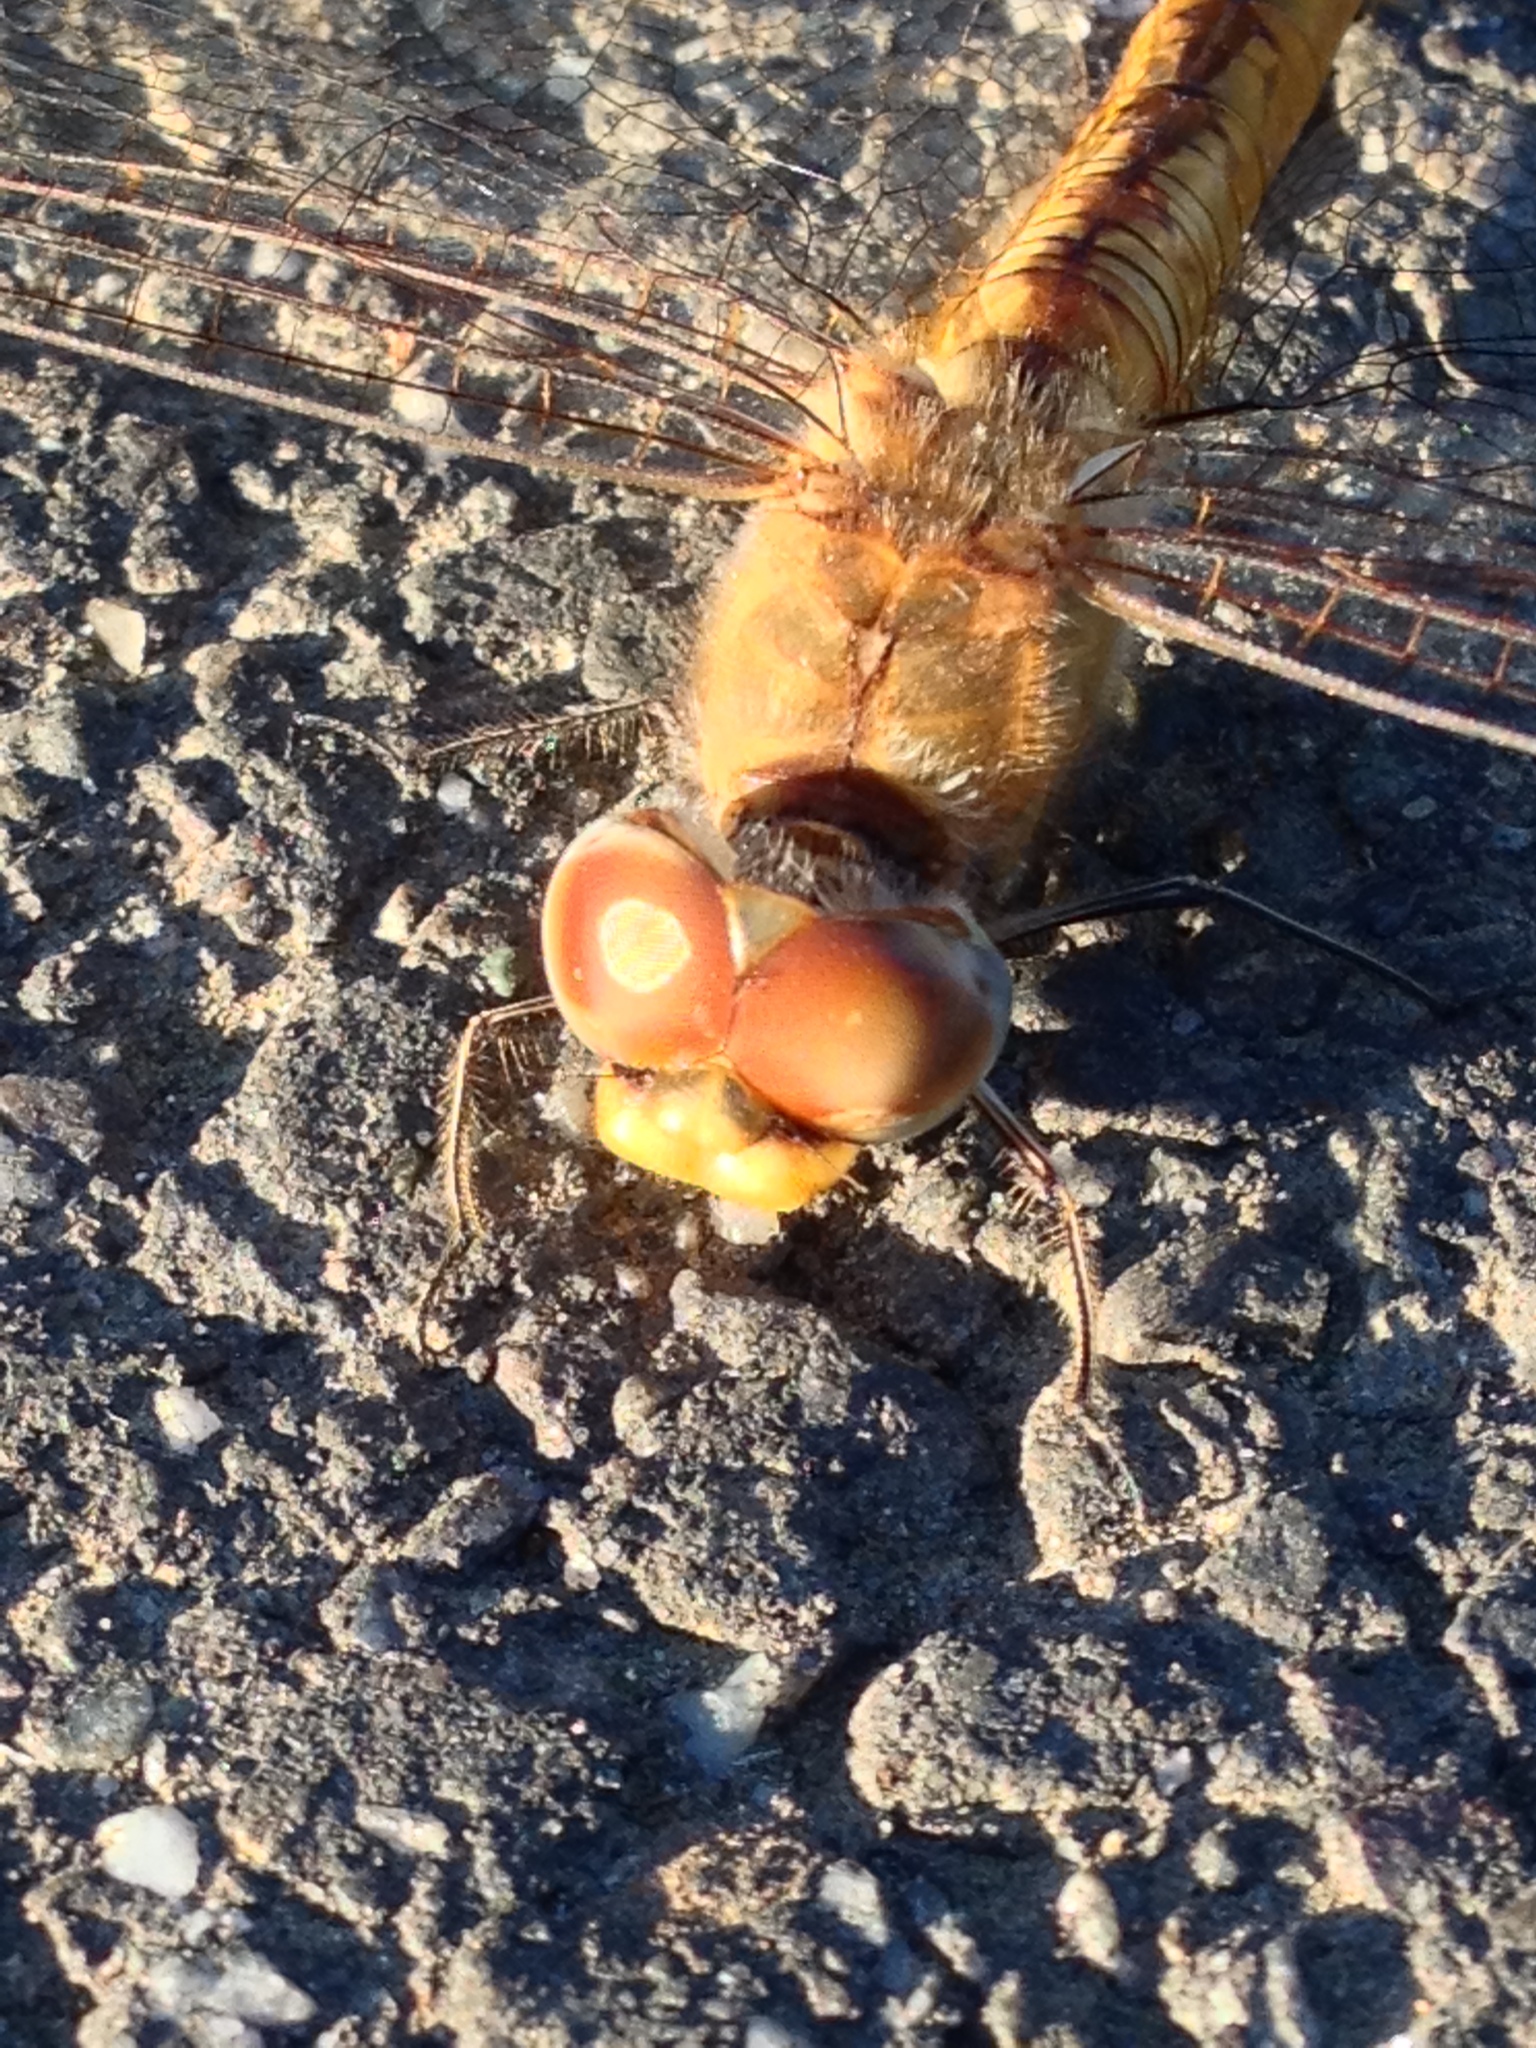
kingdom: Animalia
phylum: Arthropoda
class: Insecta
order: Odonata
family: Libellulidae
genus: Pantala
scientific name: Pantala flavescens
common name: Wandering glider
